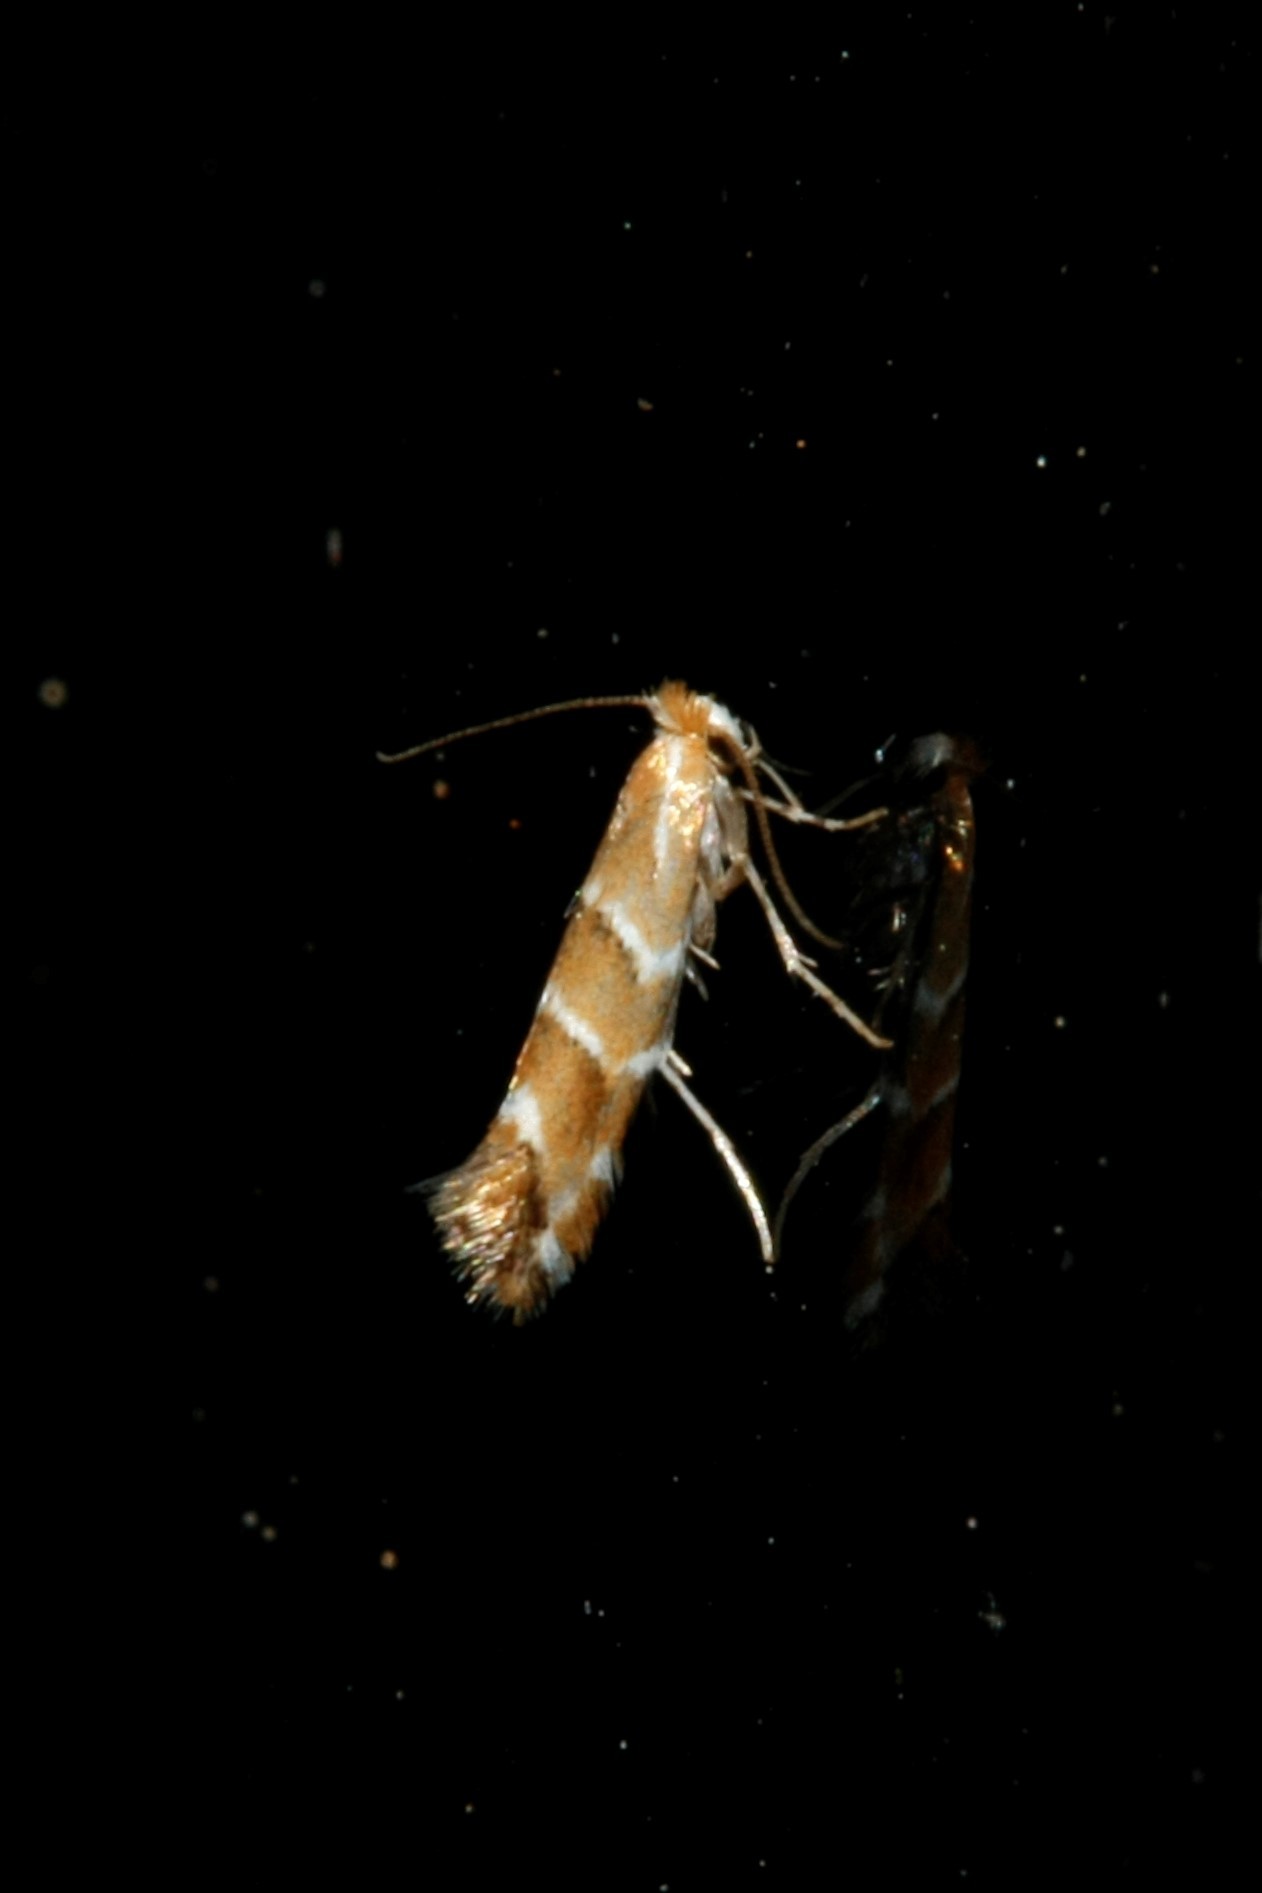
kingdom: Animalia
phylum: Arthropoda
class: Insecta
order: Lepidoptera
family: Gracillariidae
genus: Cameraria
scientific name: Cameraria ohridella
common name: Horse-chestnut leaf-miner
